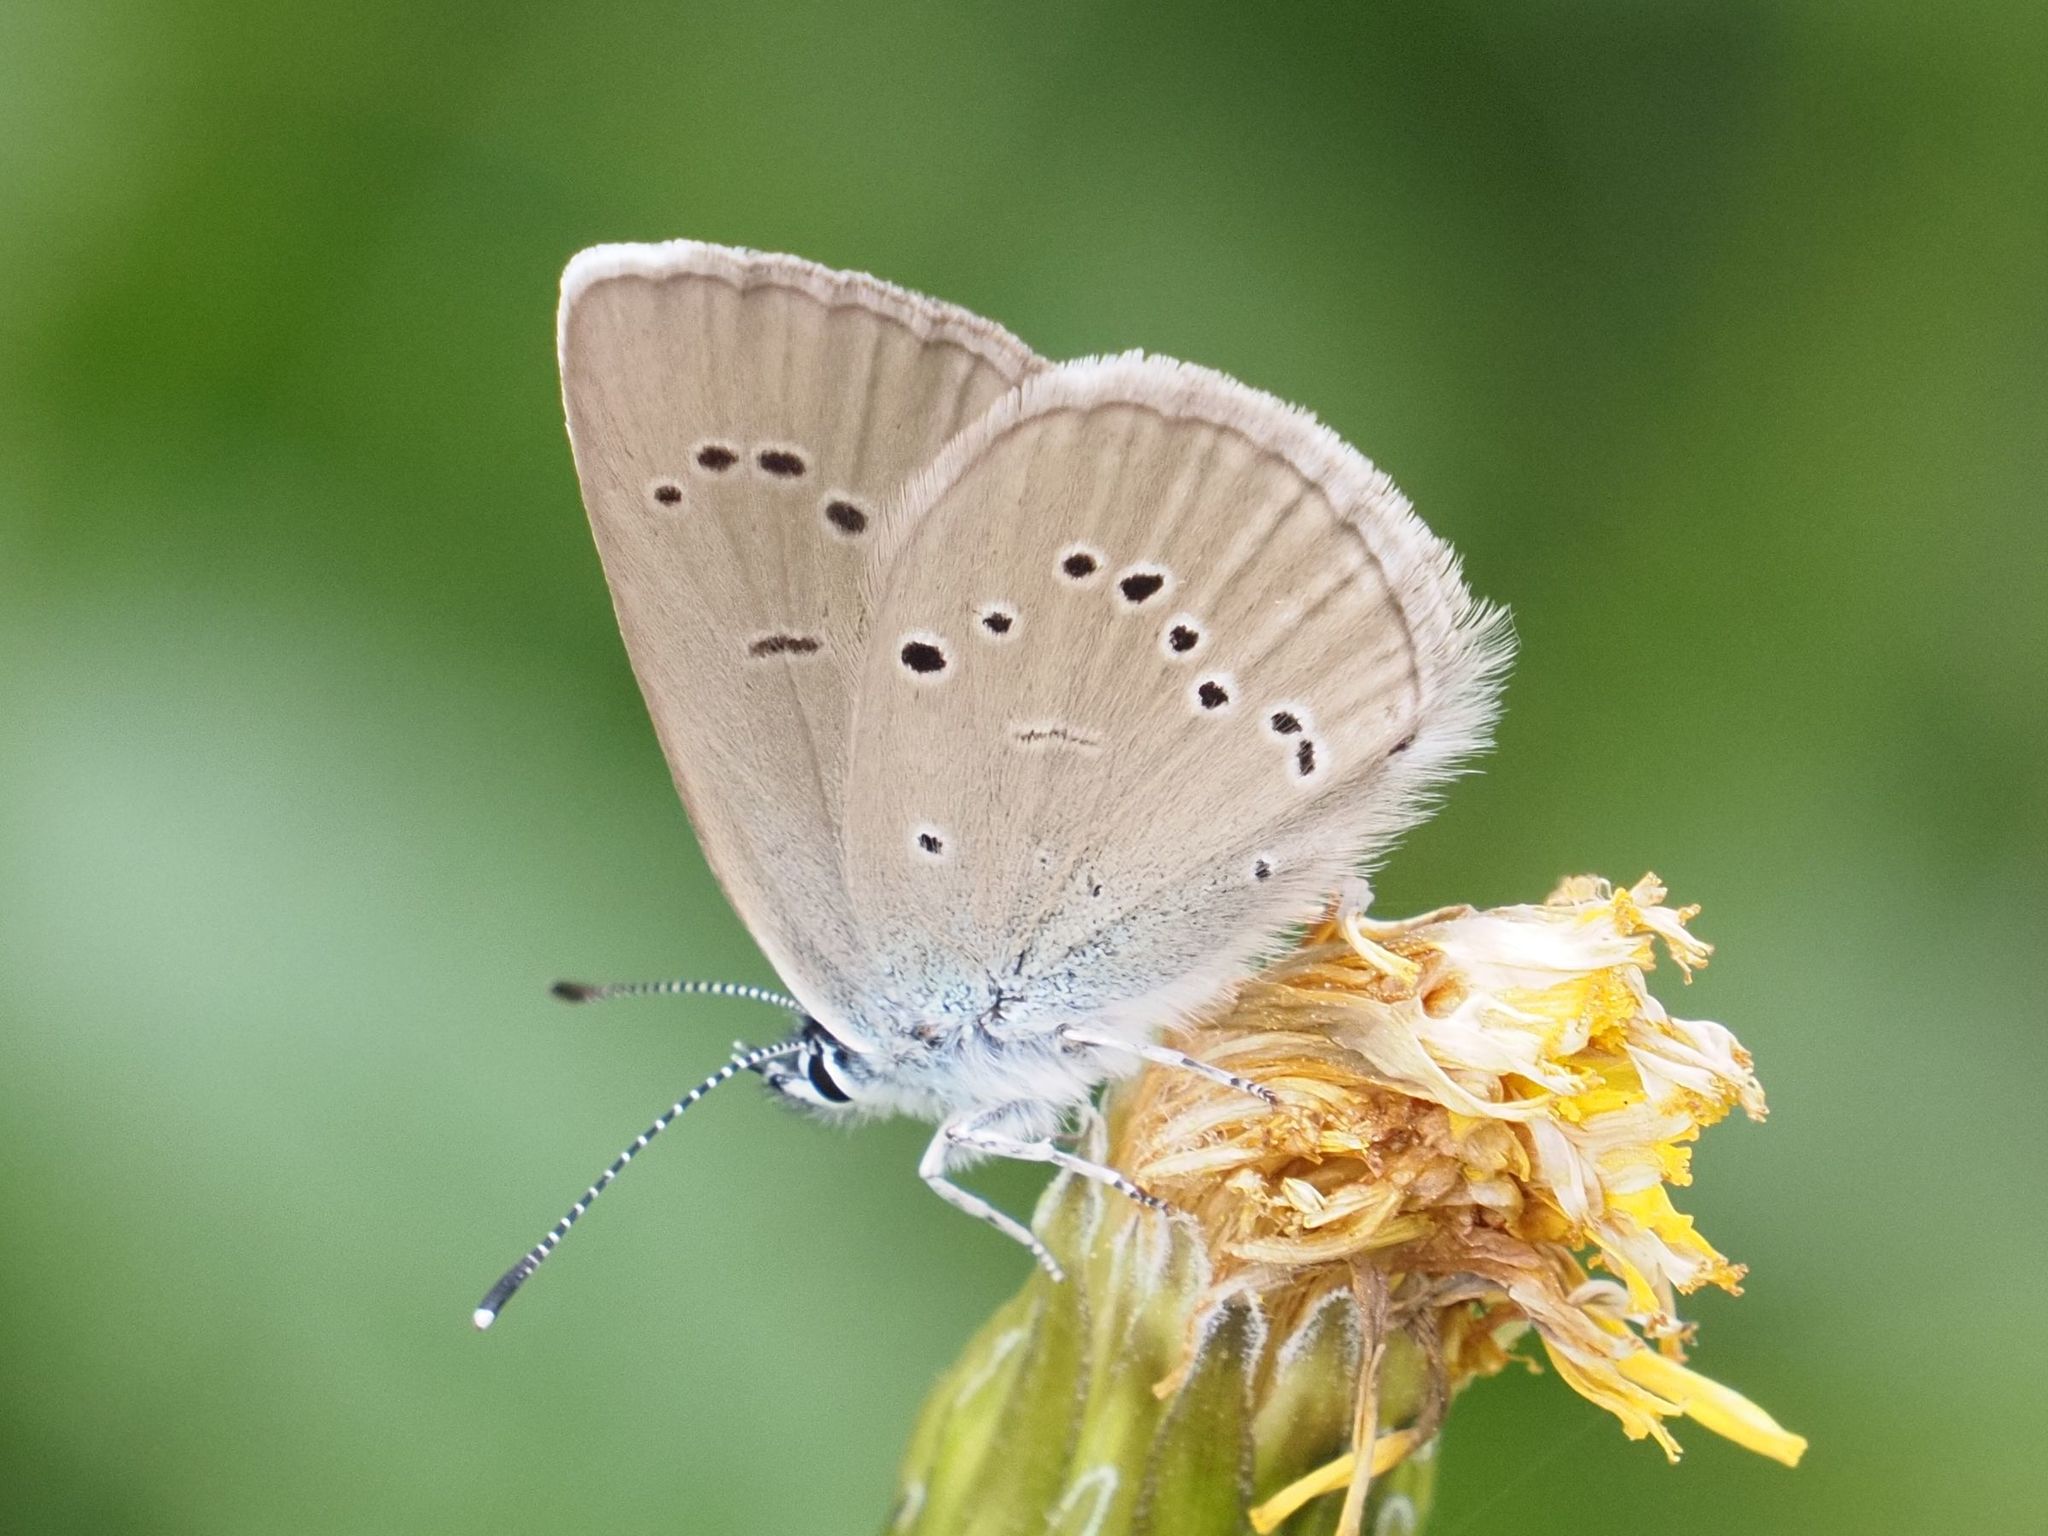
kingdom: Animalia
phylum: Arthropoda
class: Insecta
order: Lepidoptera
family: Lycaenidae
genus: Cyaniris
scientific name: Cyaniris semiargus
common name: Mazarine blue
